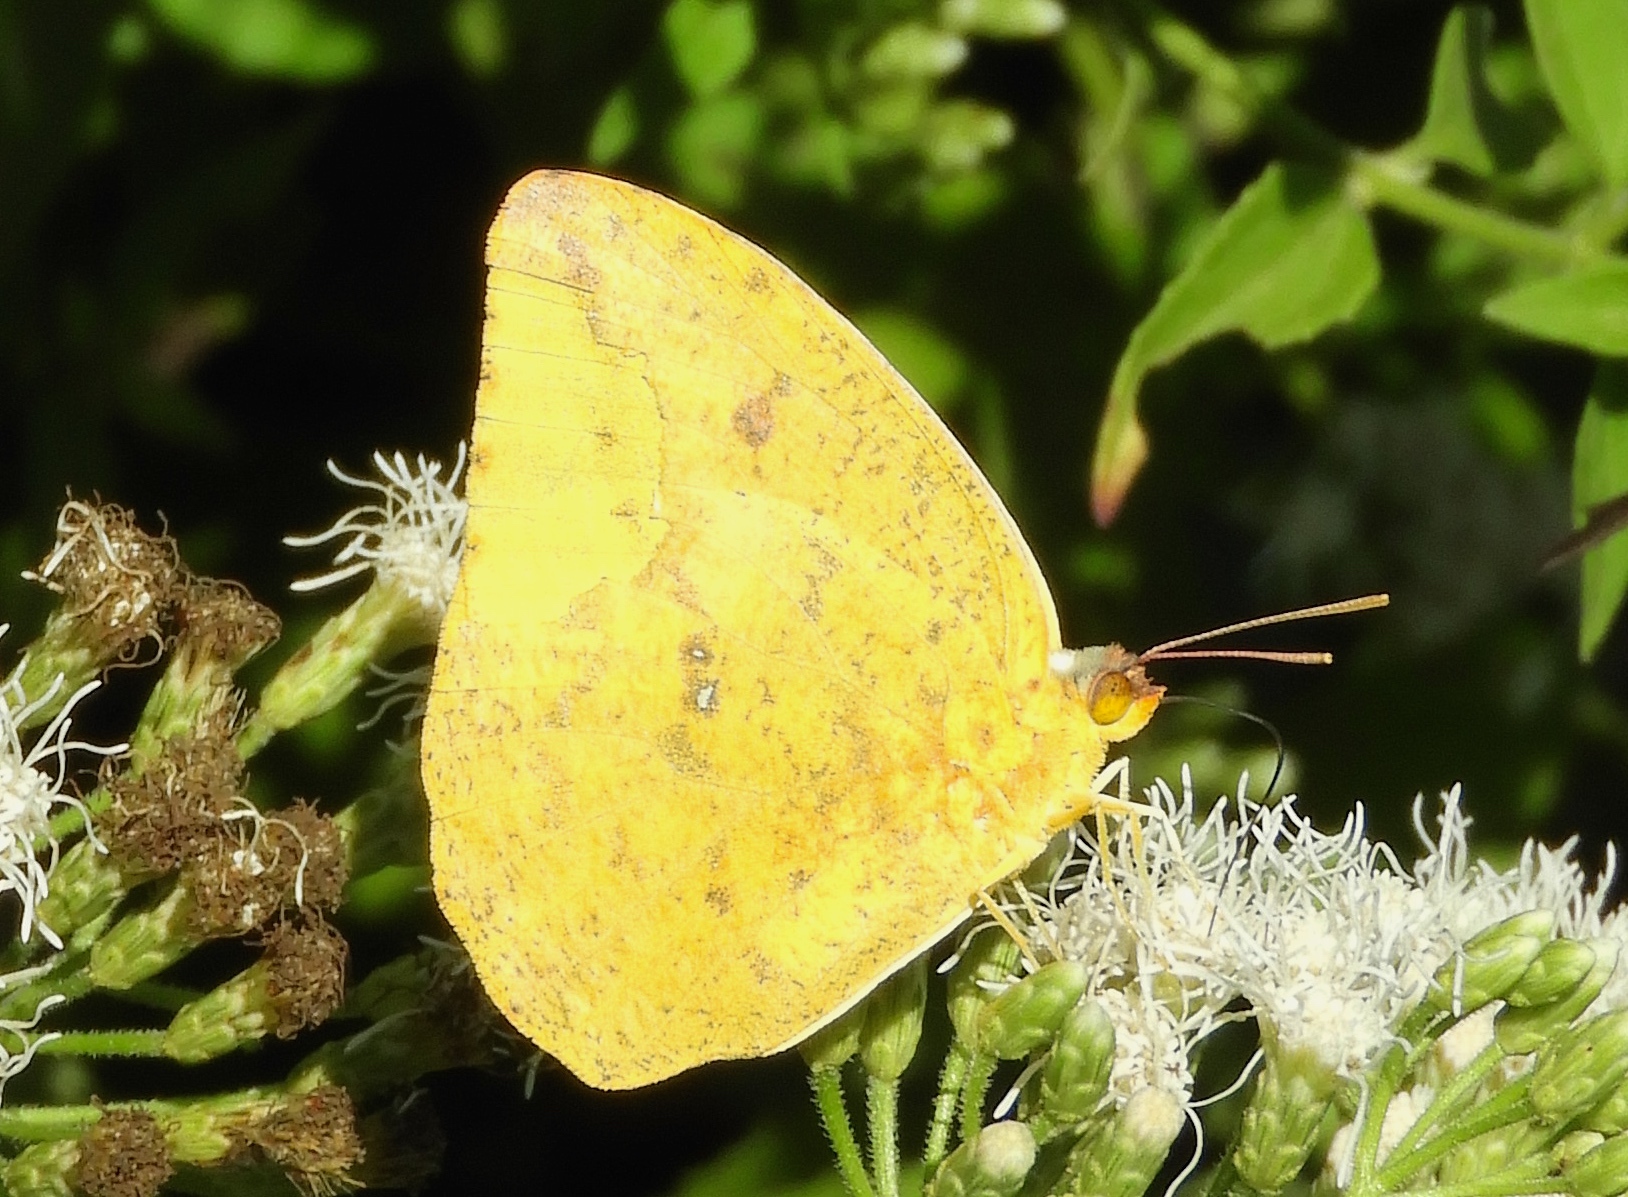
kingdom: Animalia
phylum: Arthropoda
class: Insecta
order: Lepidoptera
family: Pieridae
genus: Phoebis
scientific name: Phoebis agarithe
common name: Large orange sulphur
